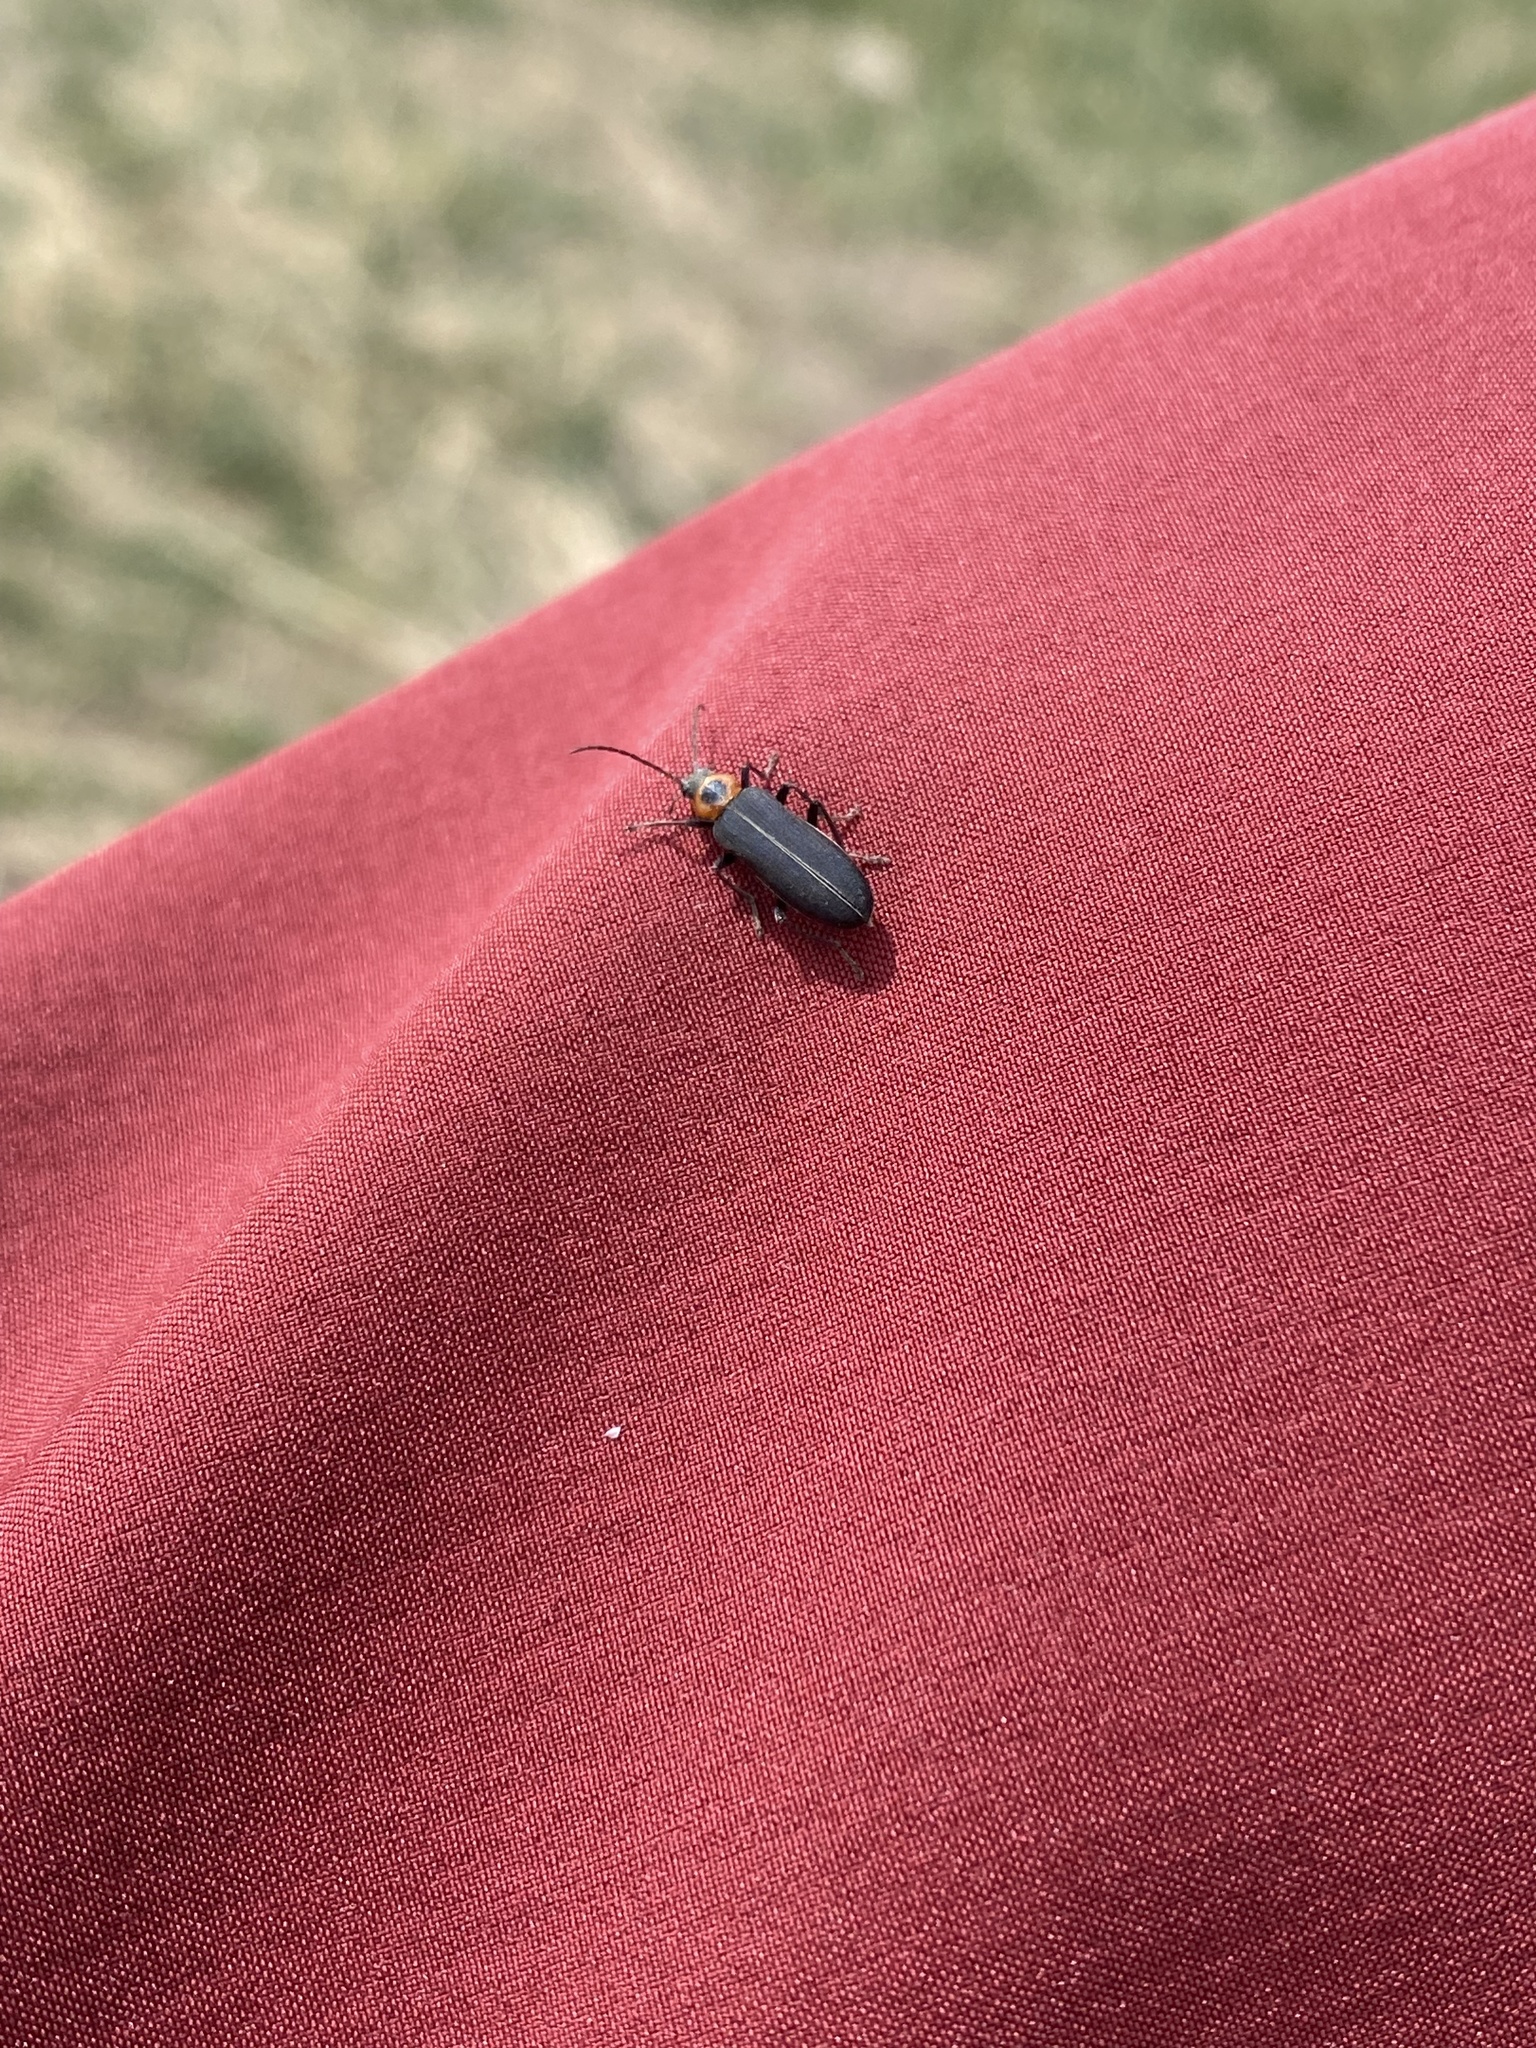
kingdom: Animalia
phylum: Arthropoda
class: Insecta
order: Coleoptera
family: Oedemeridae
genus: Ischnomera
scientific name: Ischnomera
